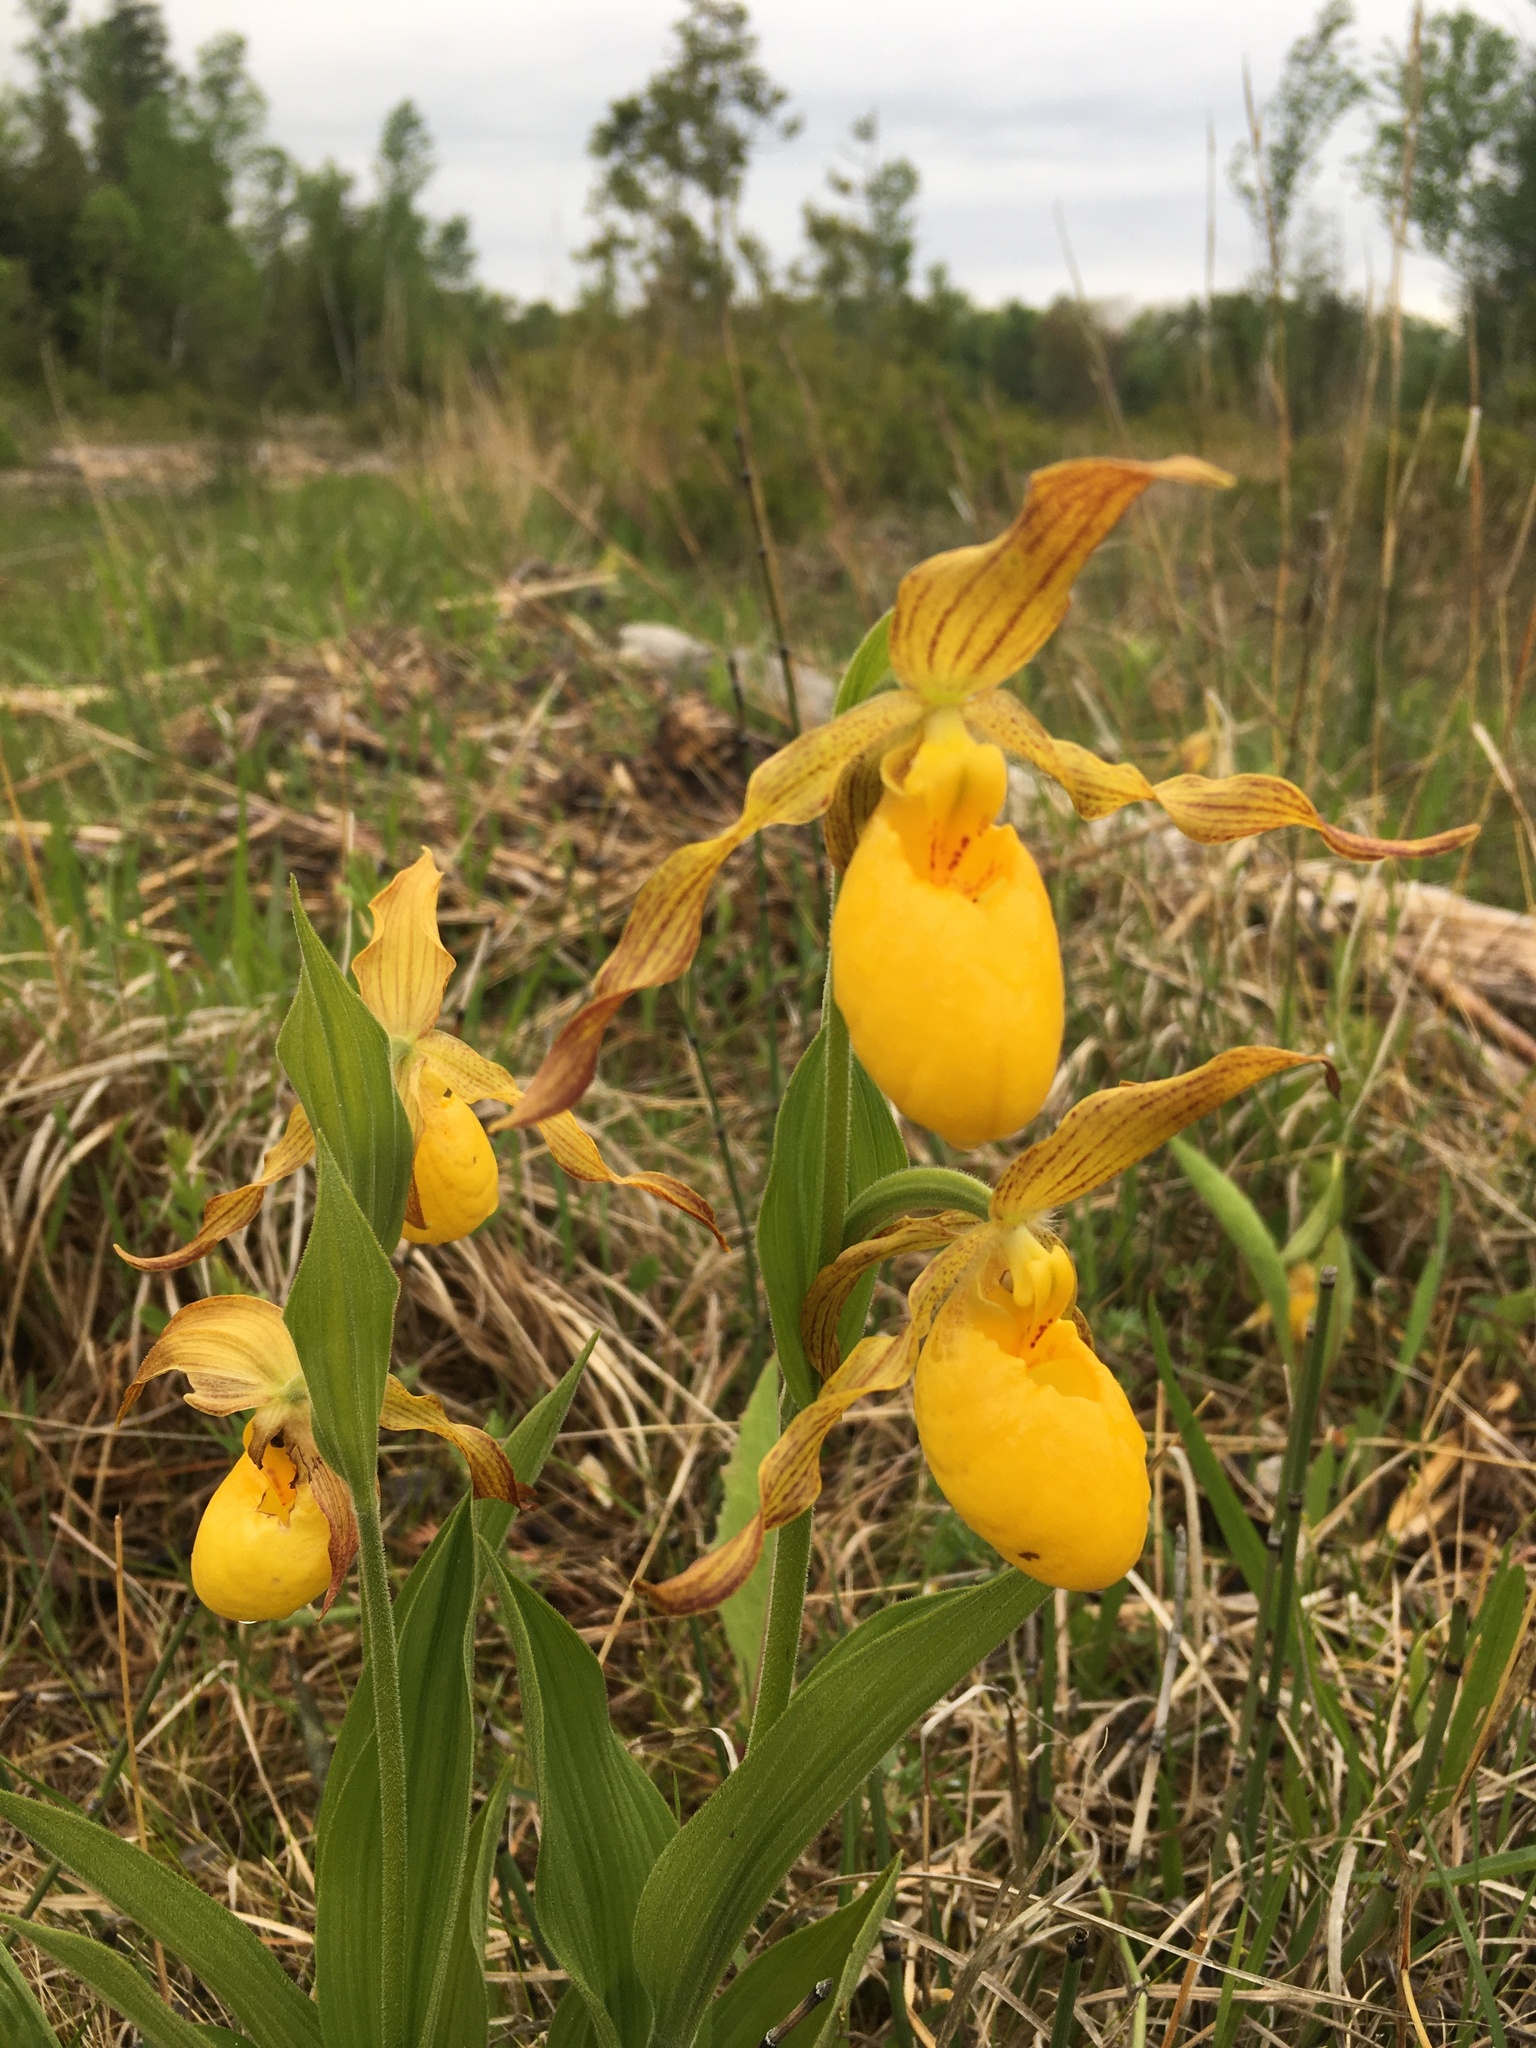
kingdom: Plantae
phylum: Tracheophyta
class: Liliopsida
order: Asparagales
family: Orchidaceae
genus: Cypripedium
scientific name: Cypripedium parviflorum
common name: American yellow lady's-slipper
